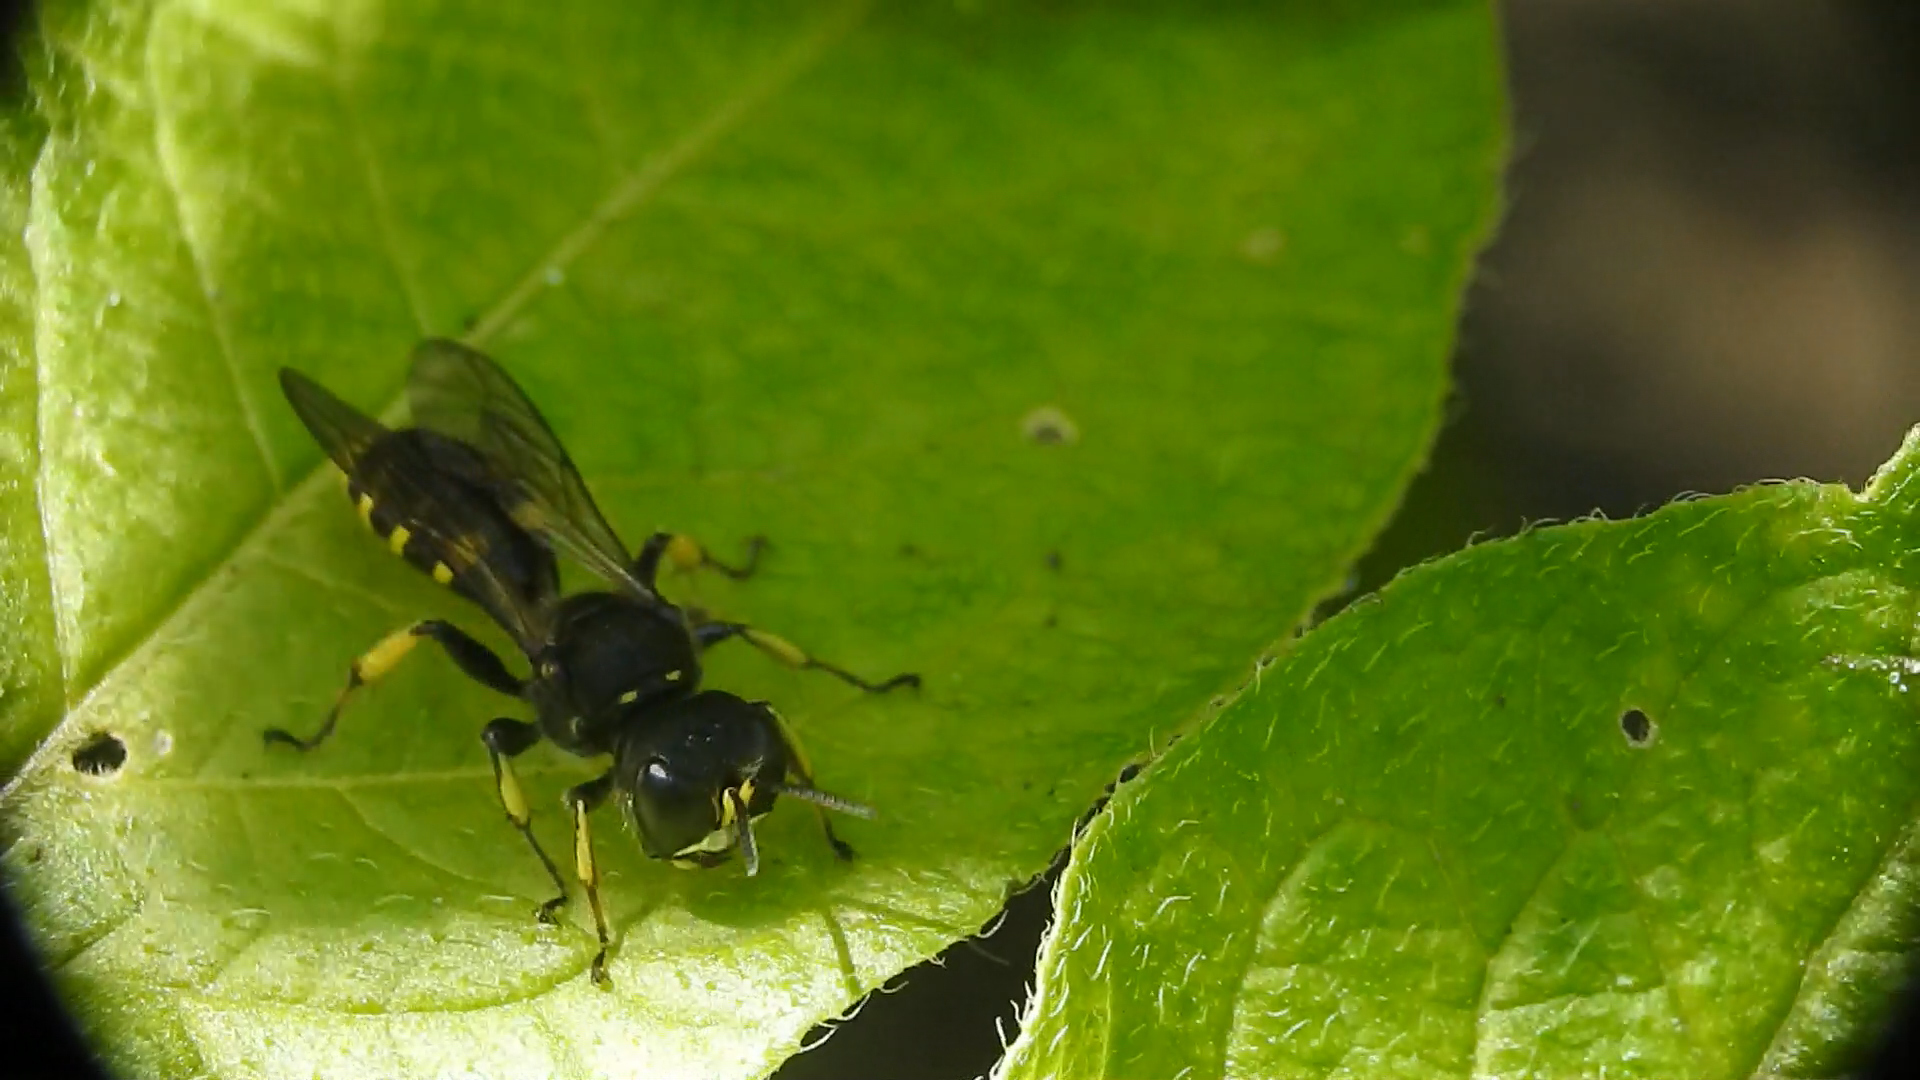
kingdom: Animalia
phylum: Arthropoda
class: Insecta
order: Hymenoptera
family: Crabronidae
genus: Ectemnius
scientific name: Ectemnius cephalotes
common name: Sphecid wasp
